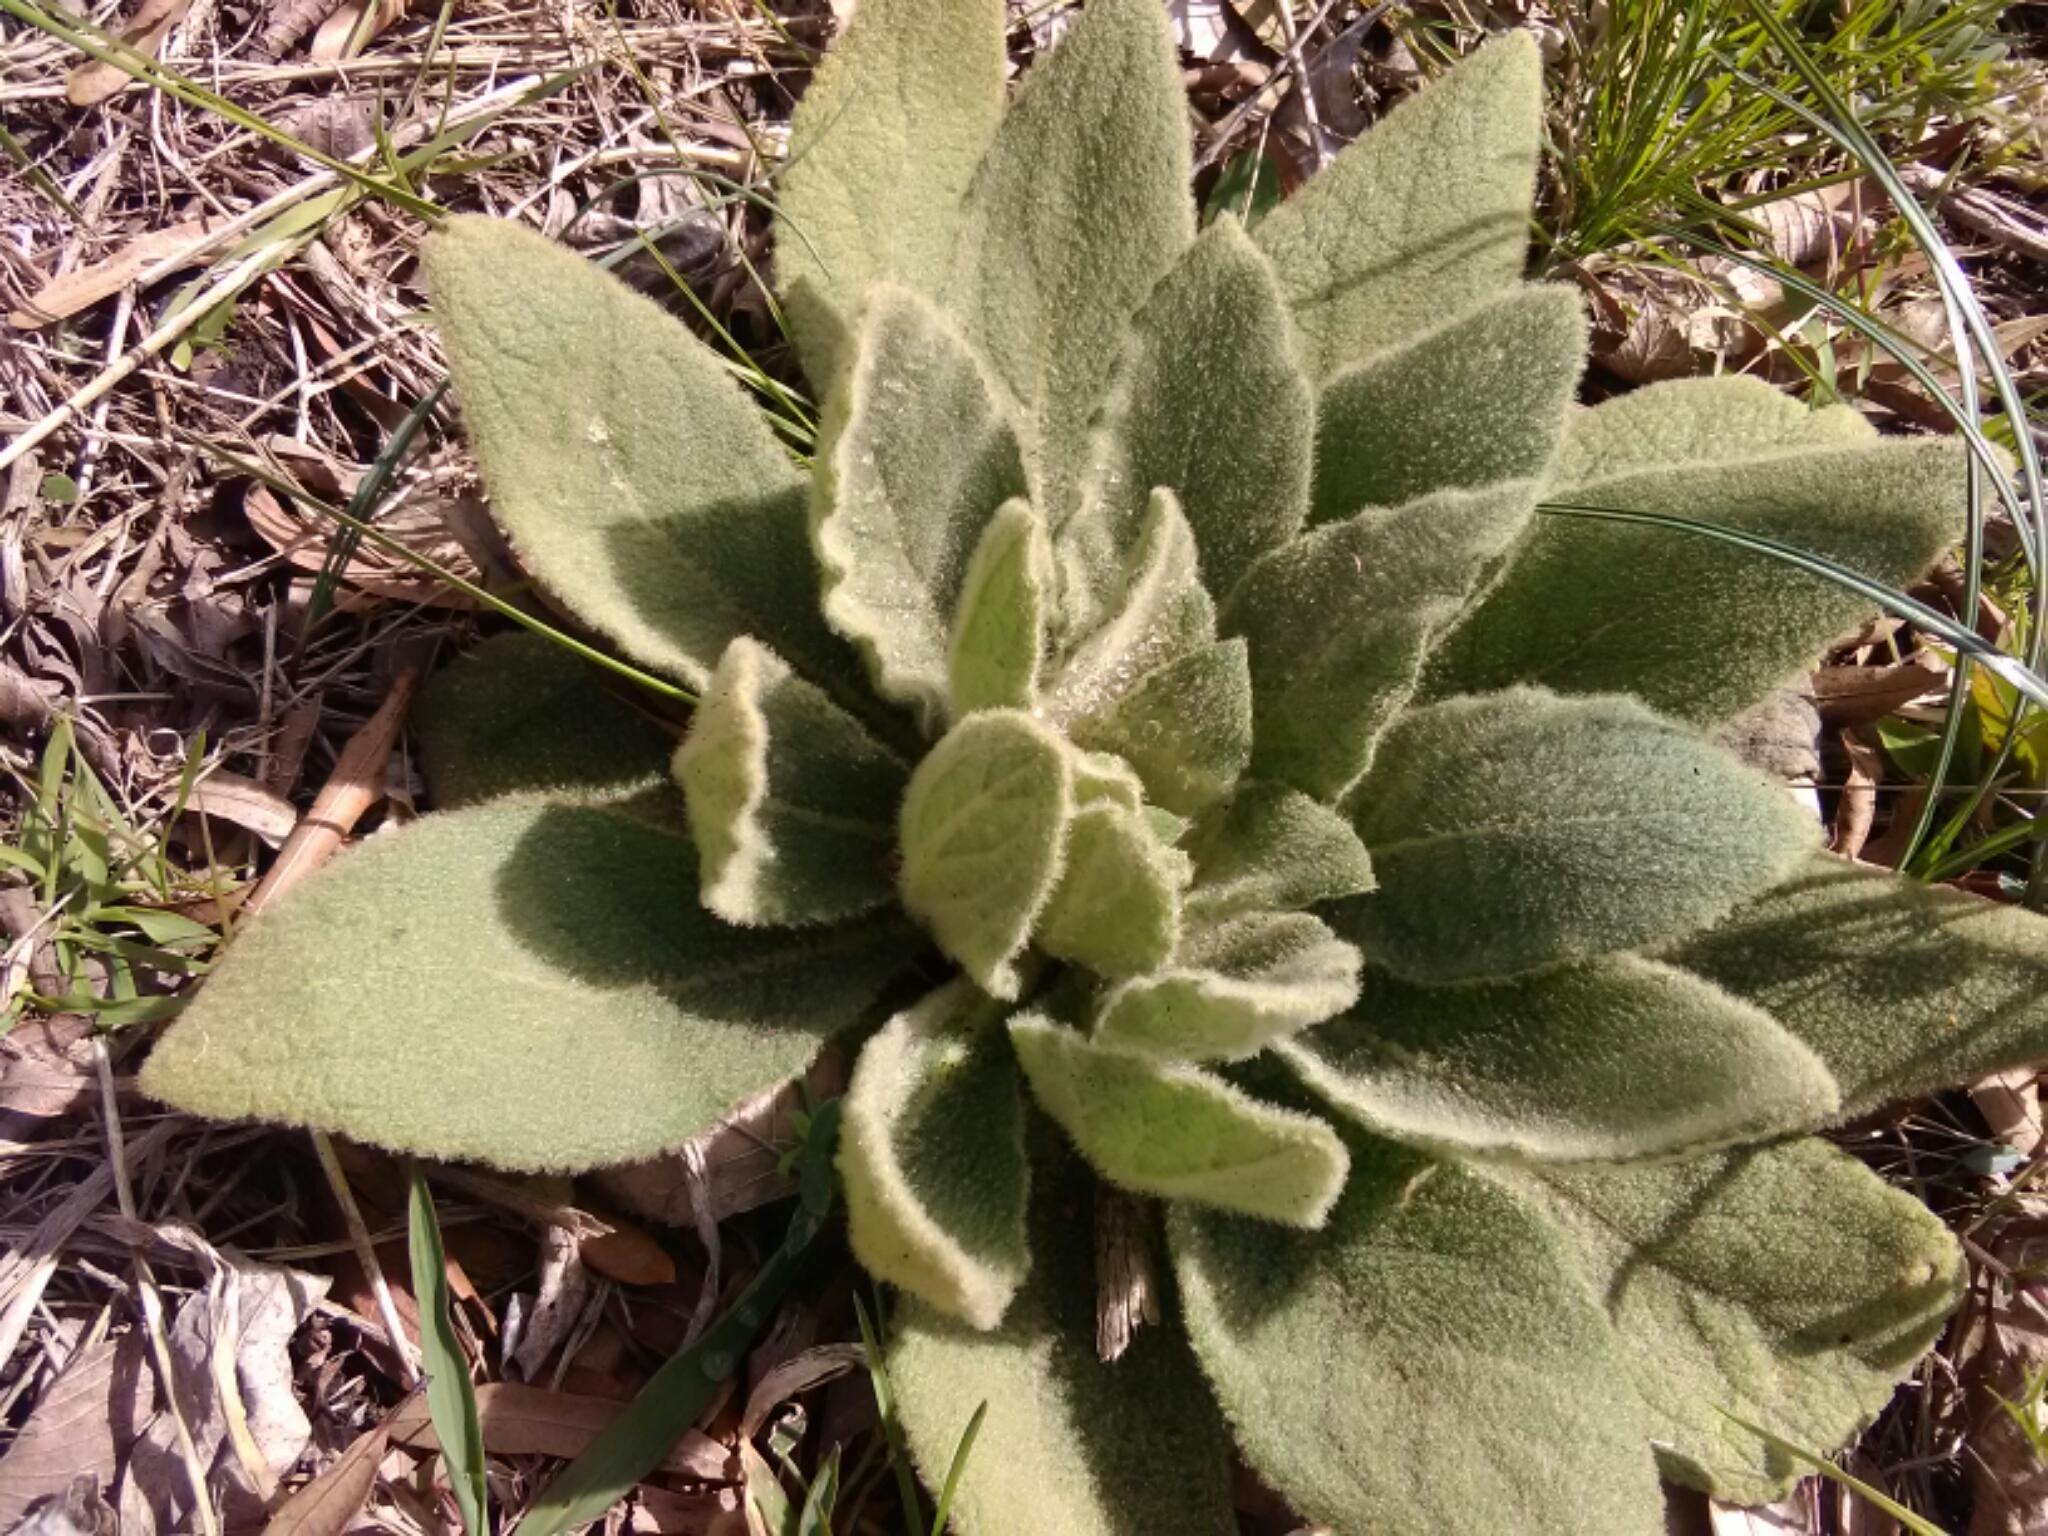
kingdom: Plantae
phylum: Tracheophyta
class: Magnoliopsida
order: Lamiales
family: Scrophulariaceae
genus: Verbascum
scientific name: Verbascum thapsus
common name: Common mullein
